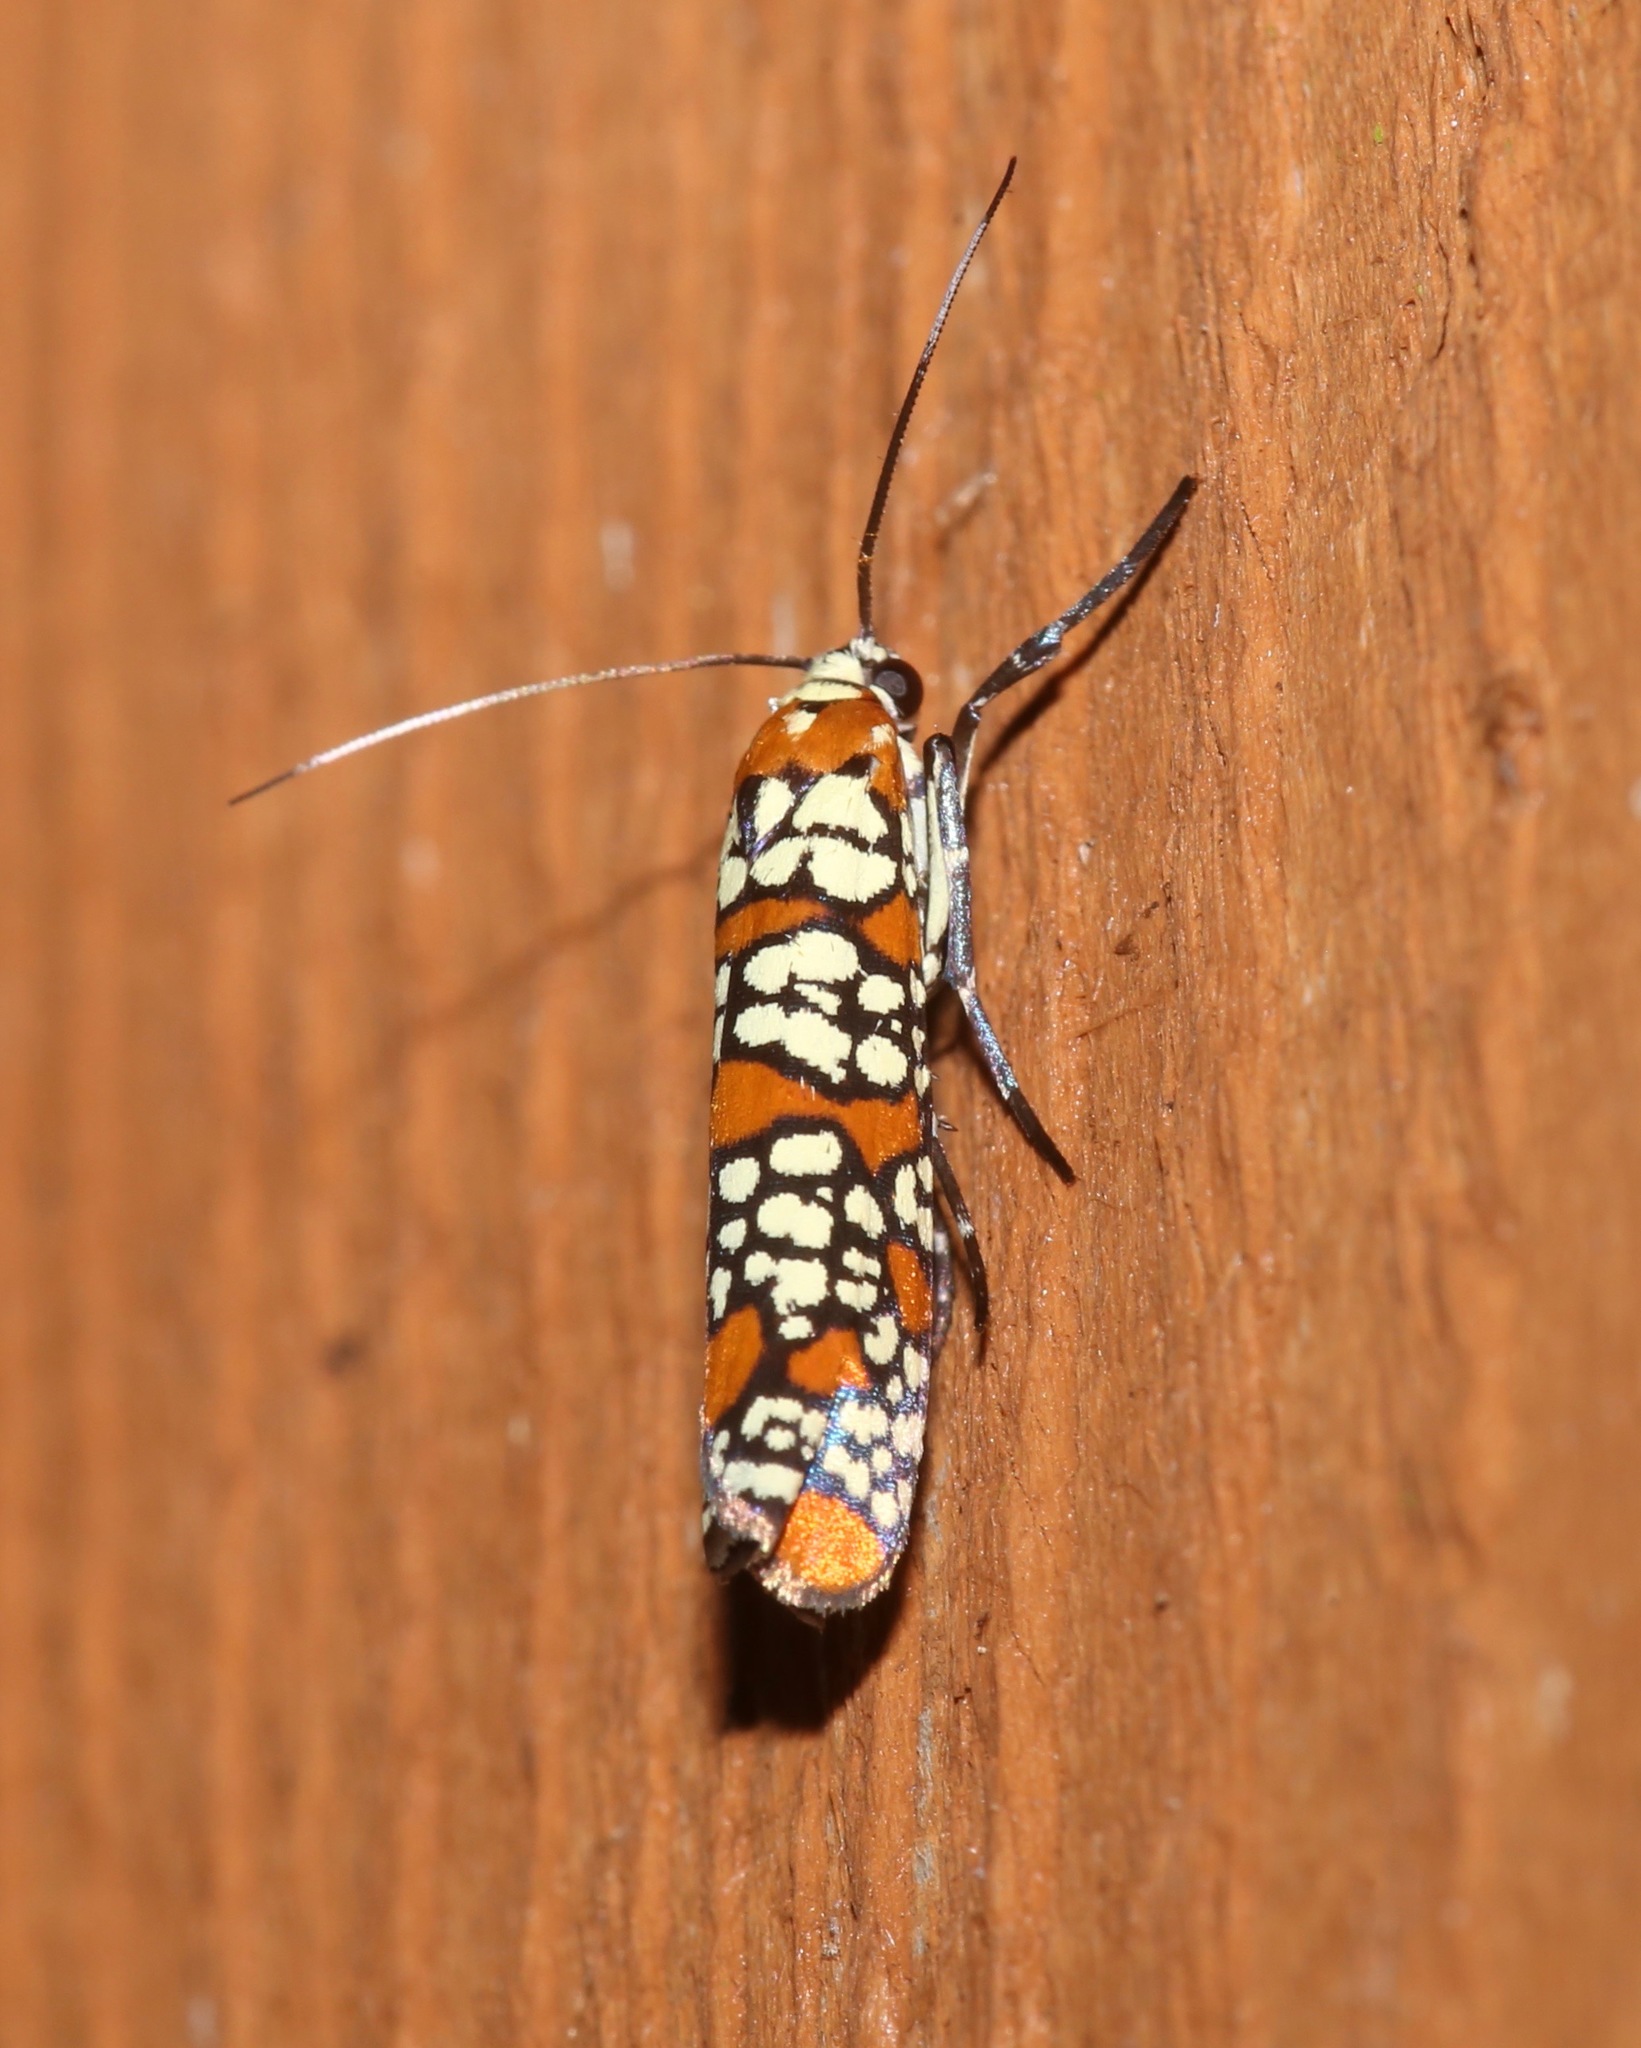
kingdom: Animalia
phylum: Arthropoda
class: Insecta
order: Lepidoptera
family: Attevidae
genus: Atteva
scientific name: Atteva punctella
